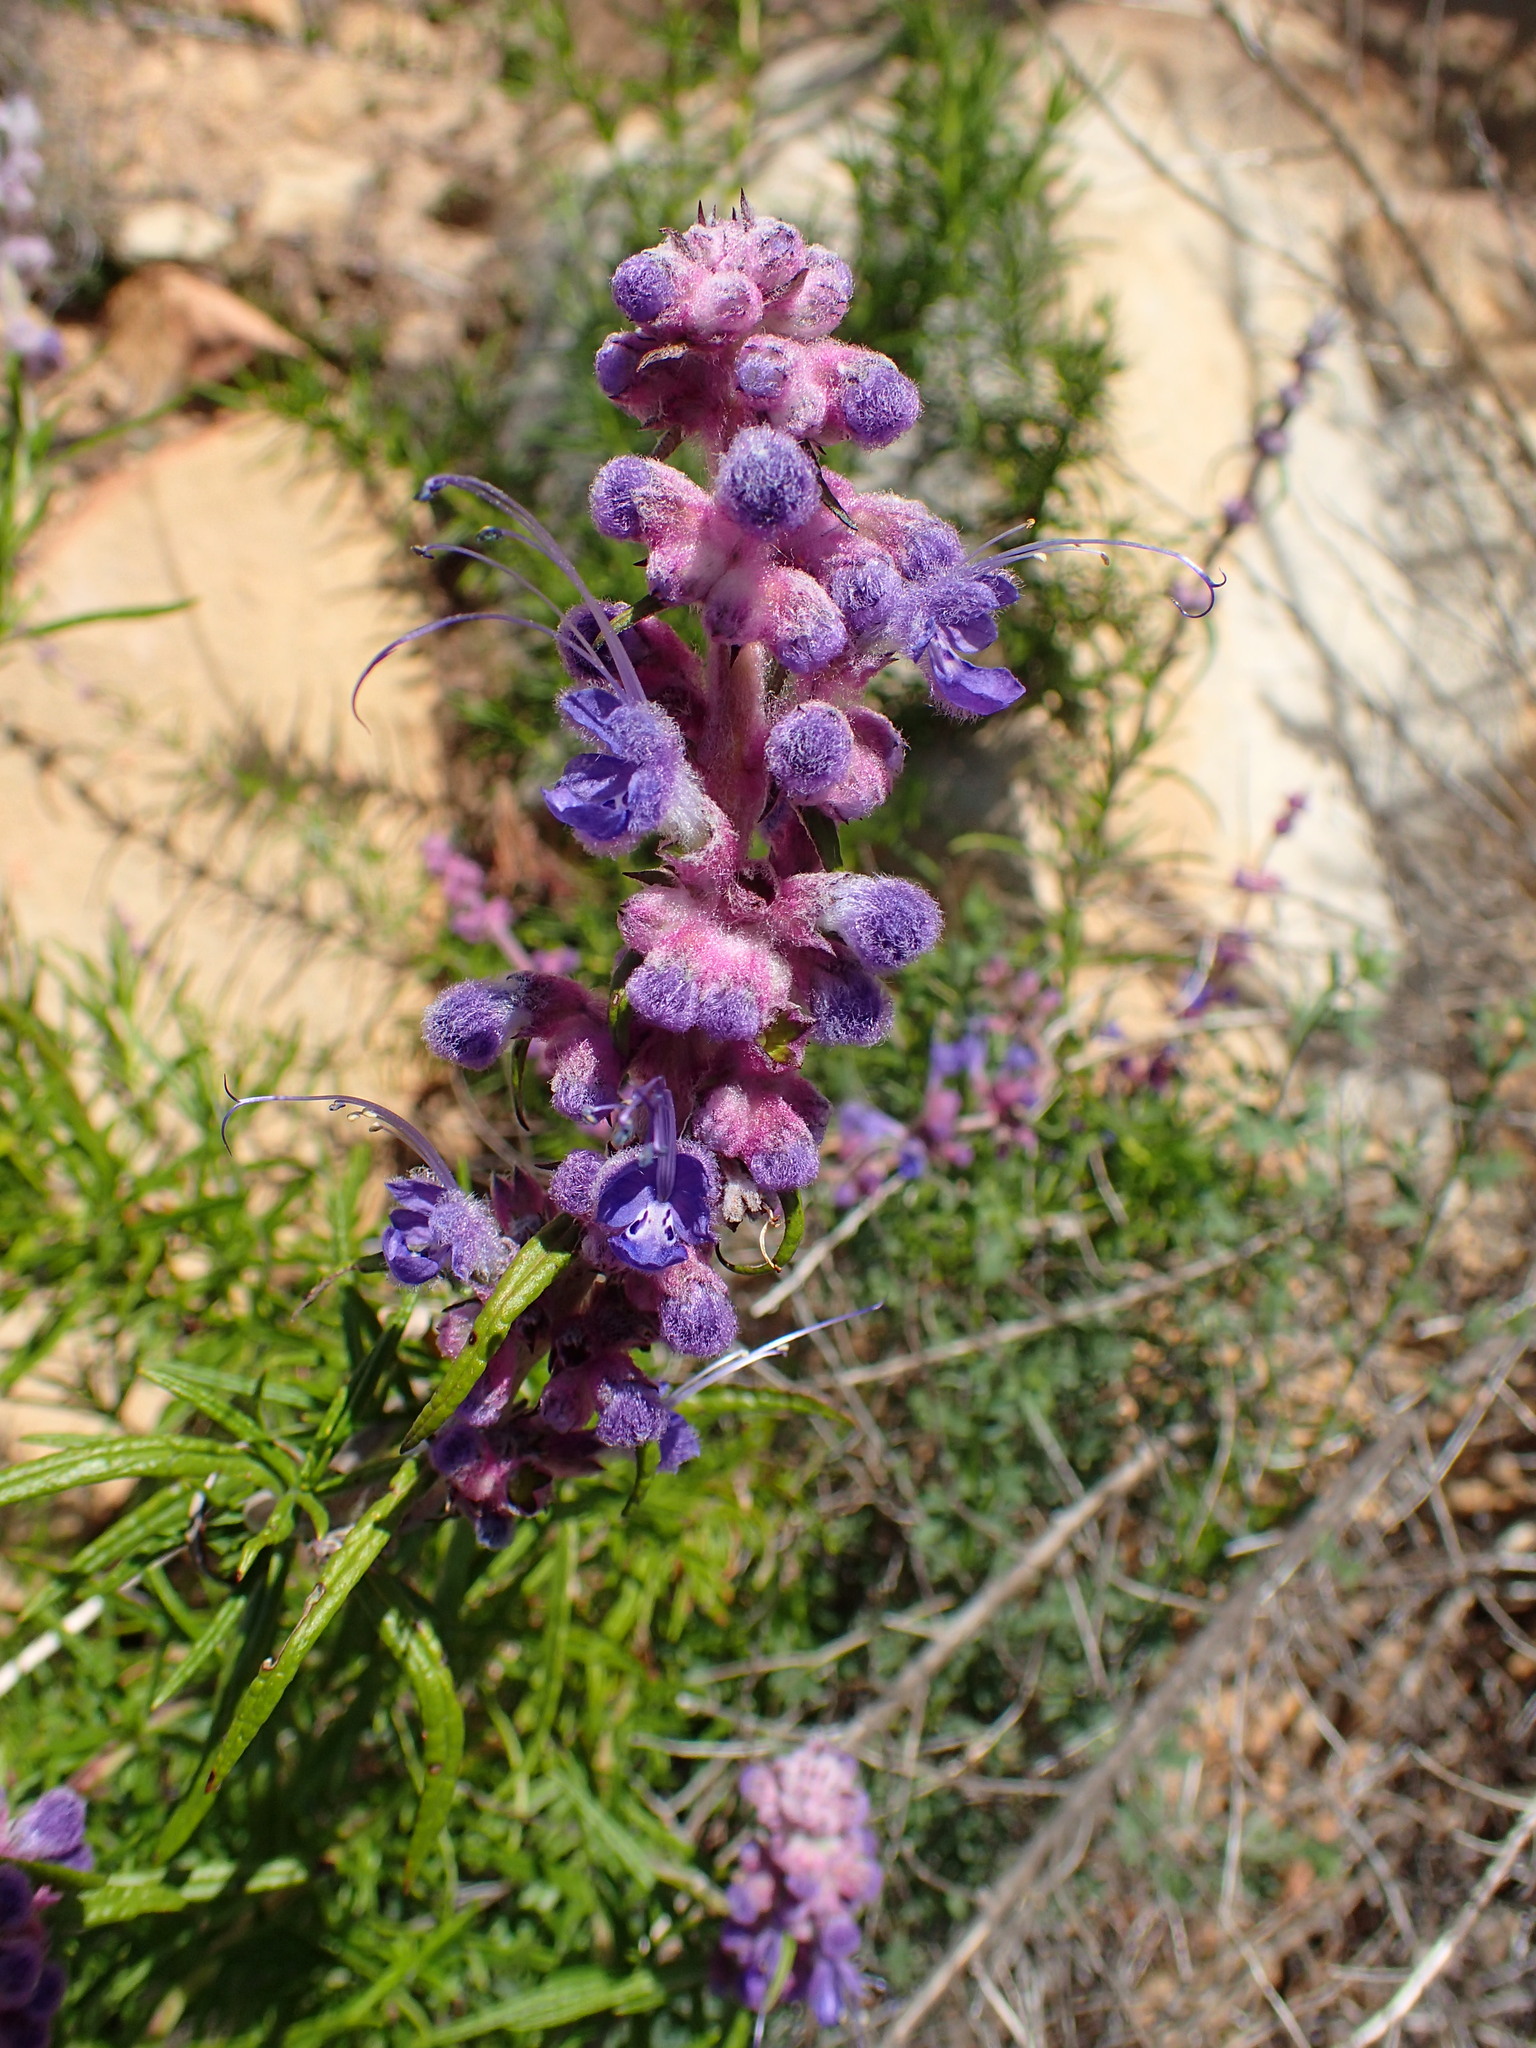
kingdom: Plantae
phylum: Tracheophyta
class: Magnoliopsida
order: Lamiales
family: Lamiaceae
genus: Trichostema
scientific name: Trichostema lanatum
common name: Woolly bluecurls
